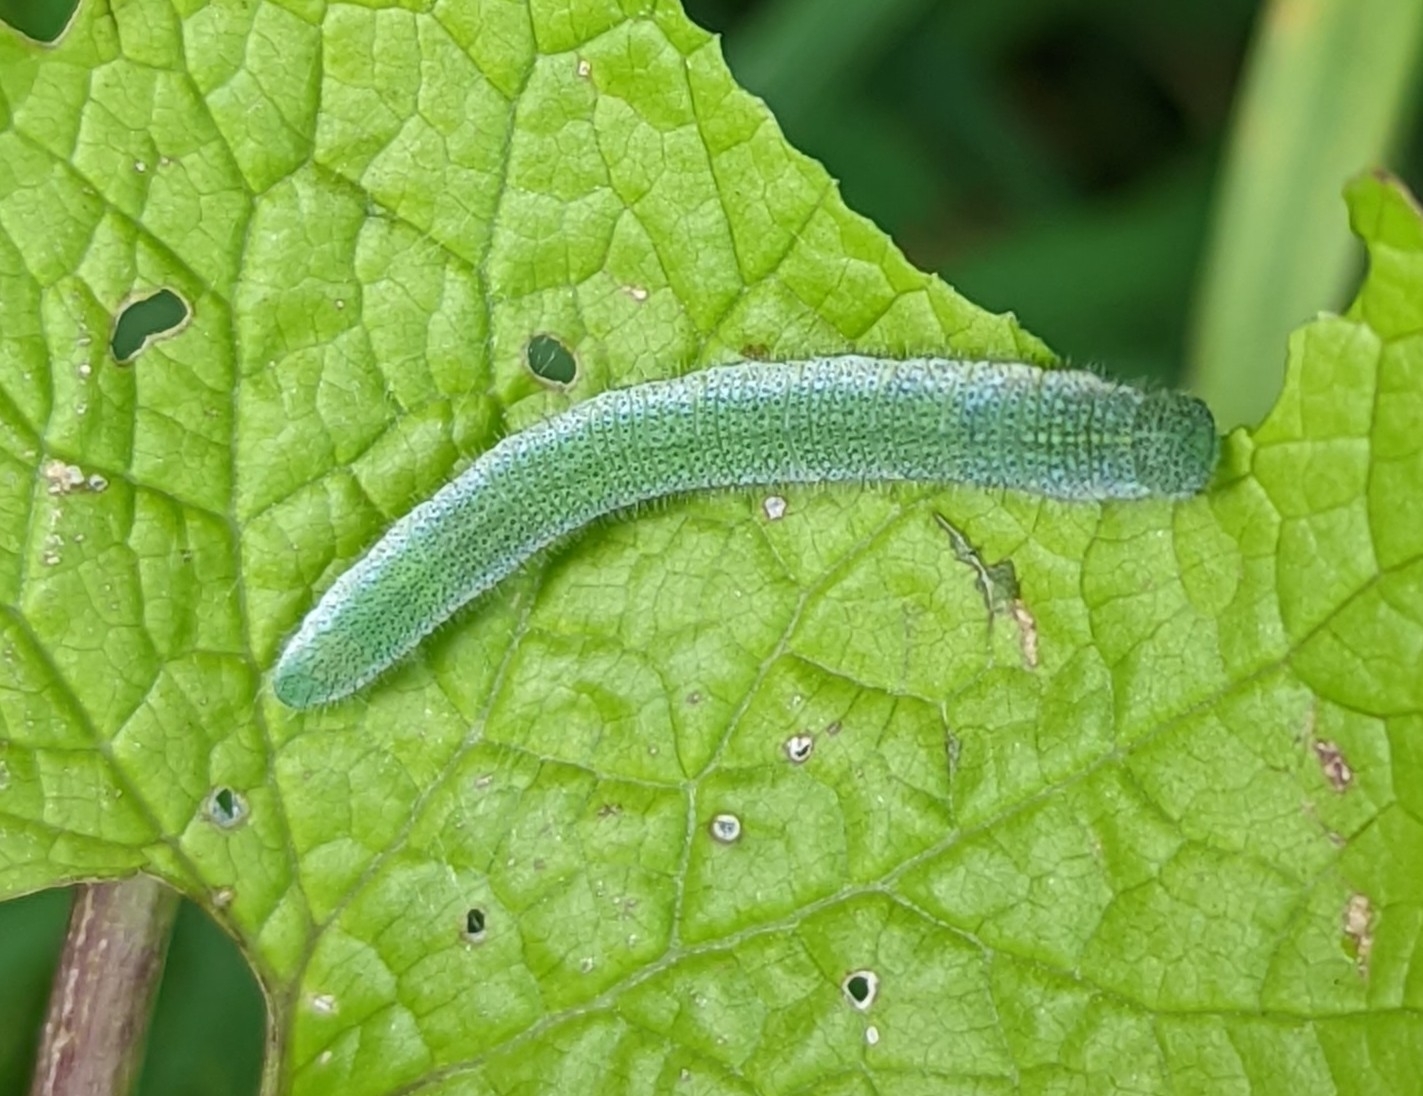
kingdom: Animalia
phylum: Arthropoda
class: Insecta
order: Lepidoptera
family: Pieridae
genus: Anthocharis
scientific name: Anthocharis cardamines
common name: Orange-tip
